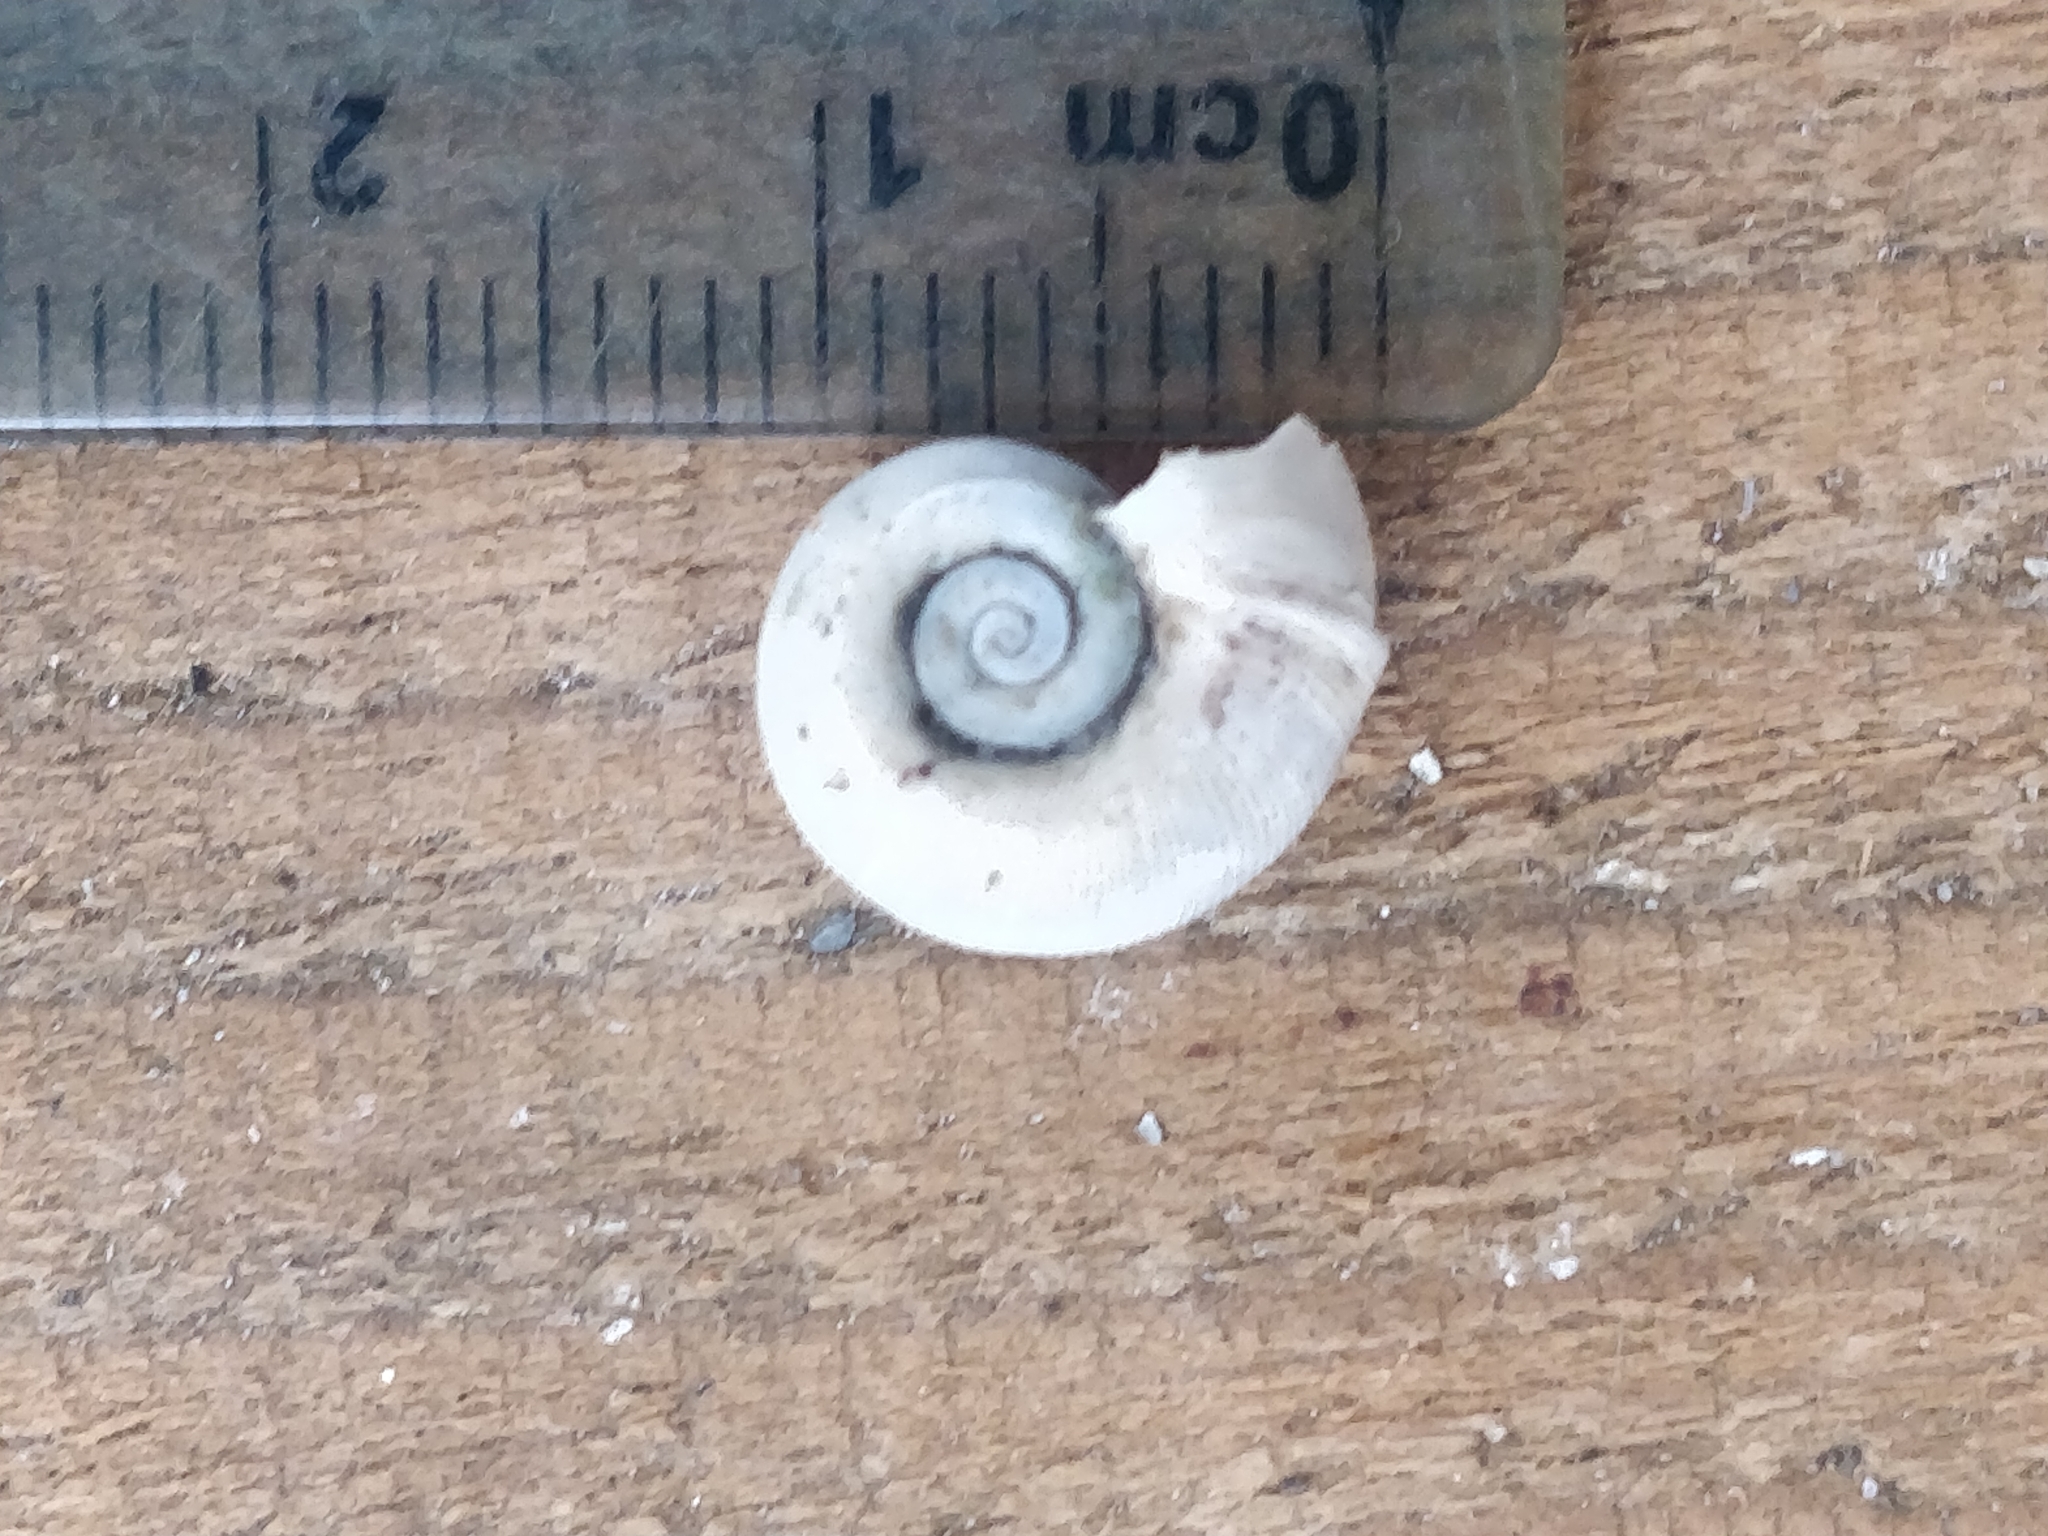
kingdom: Animalia
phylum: Mollusca
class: Gastropoda
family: Planorbidae
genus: Planorbella
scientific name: Planorbella trivolvis
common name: Marsh rams-horn
